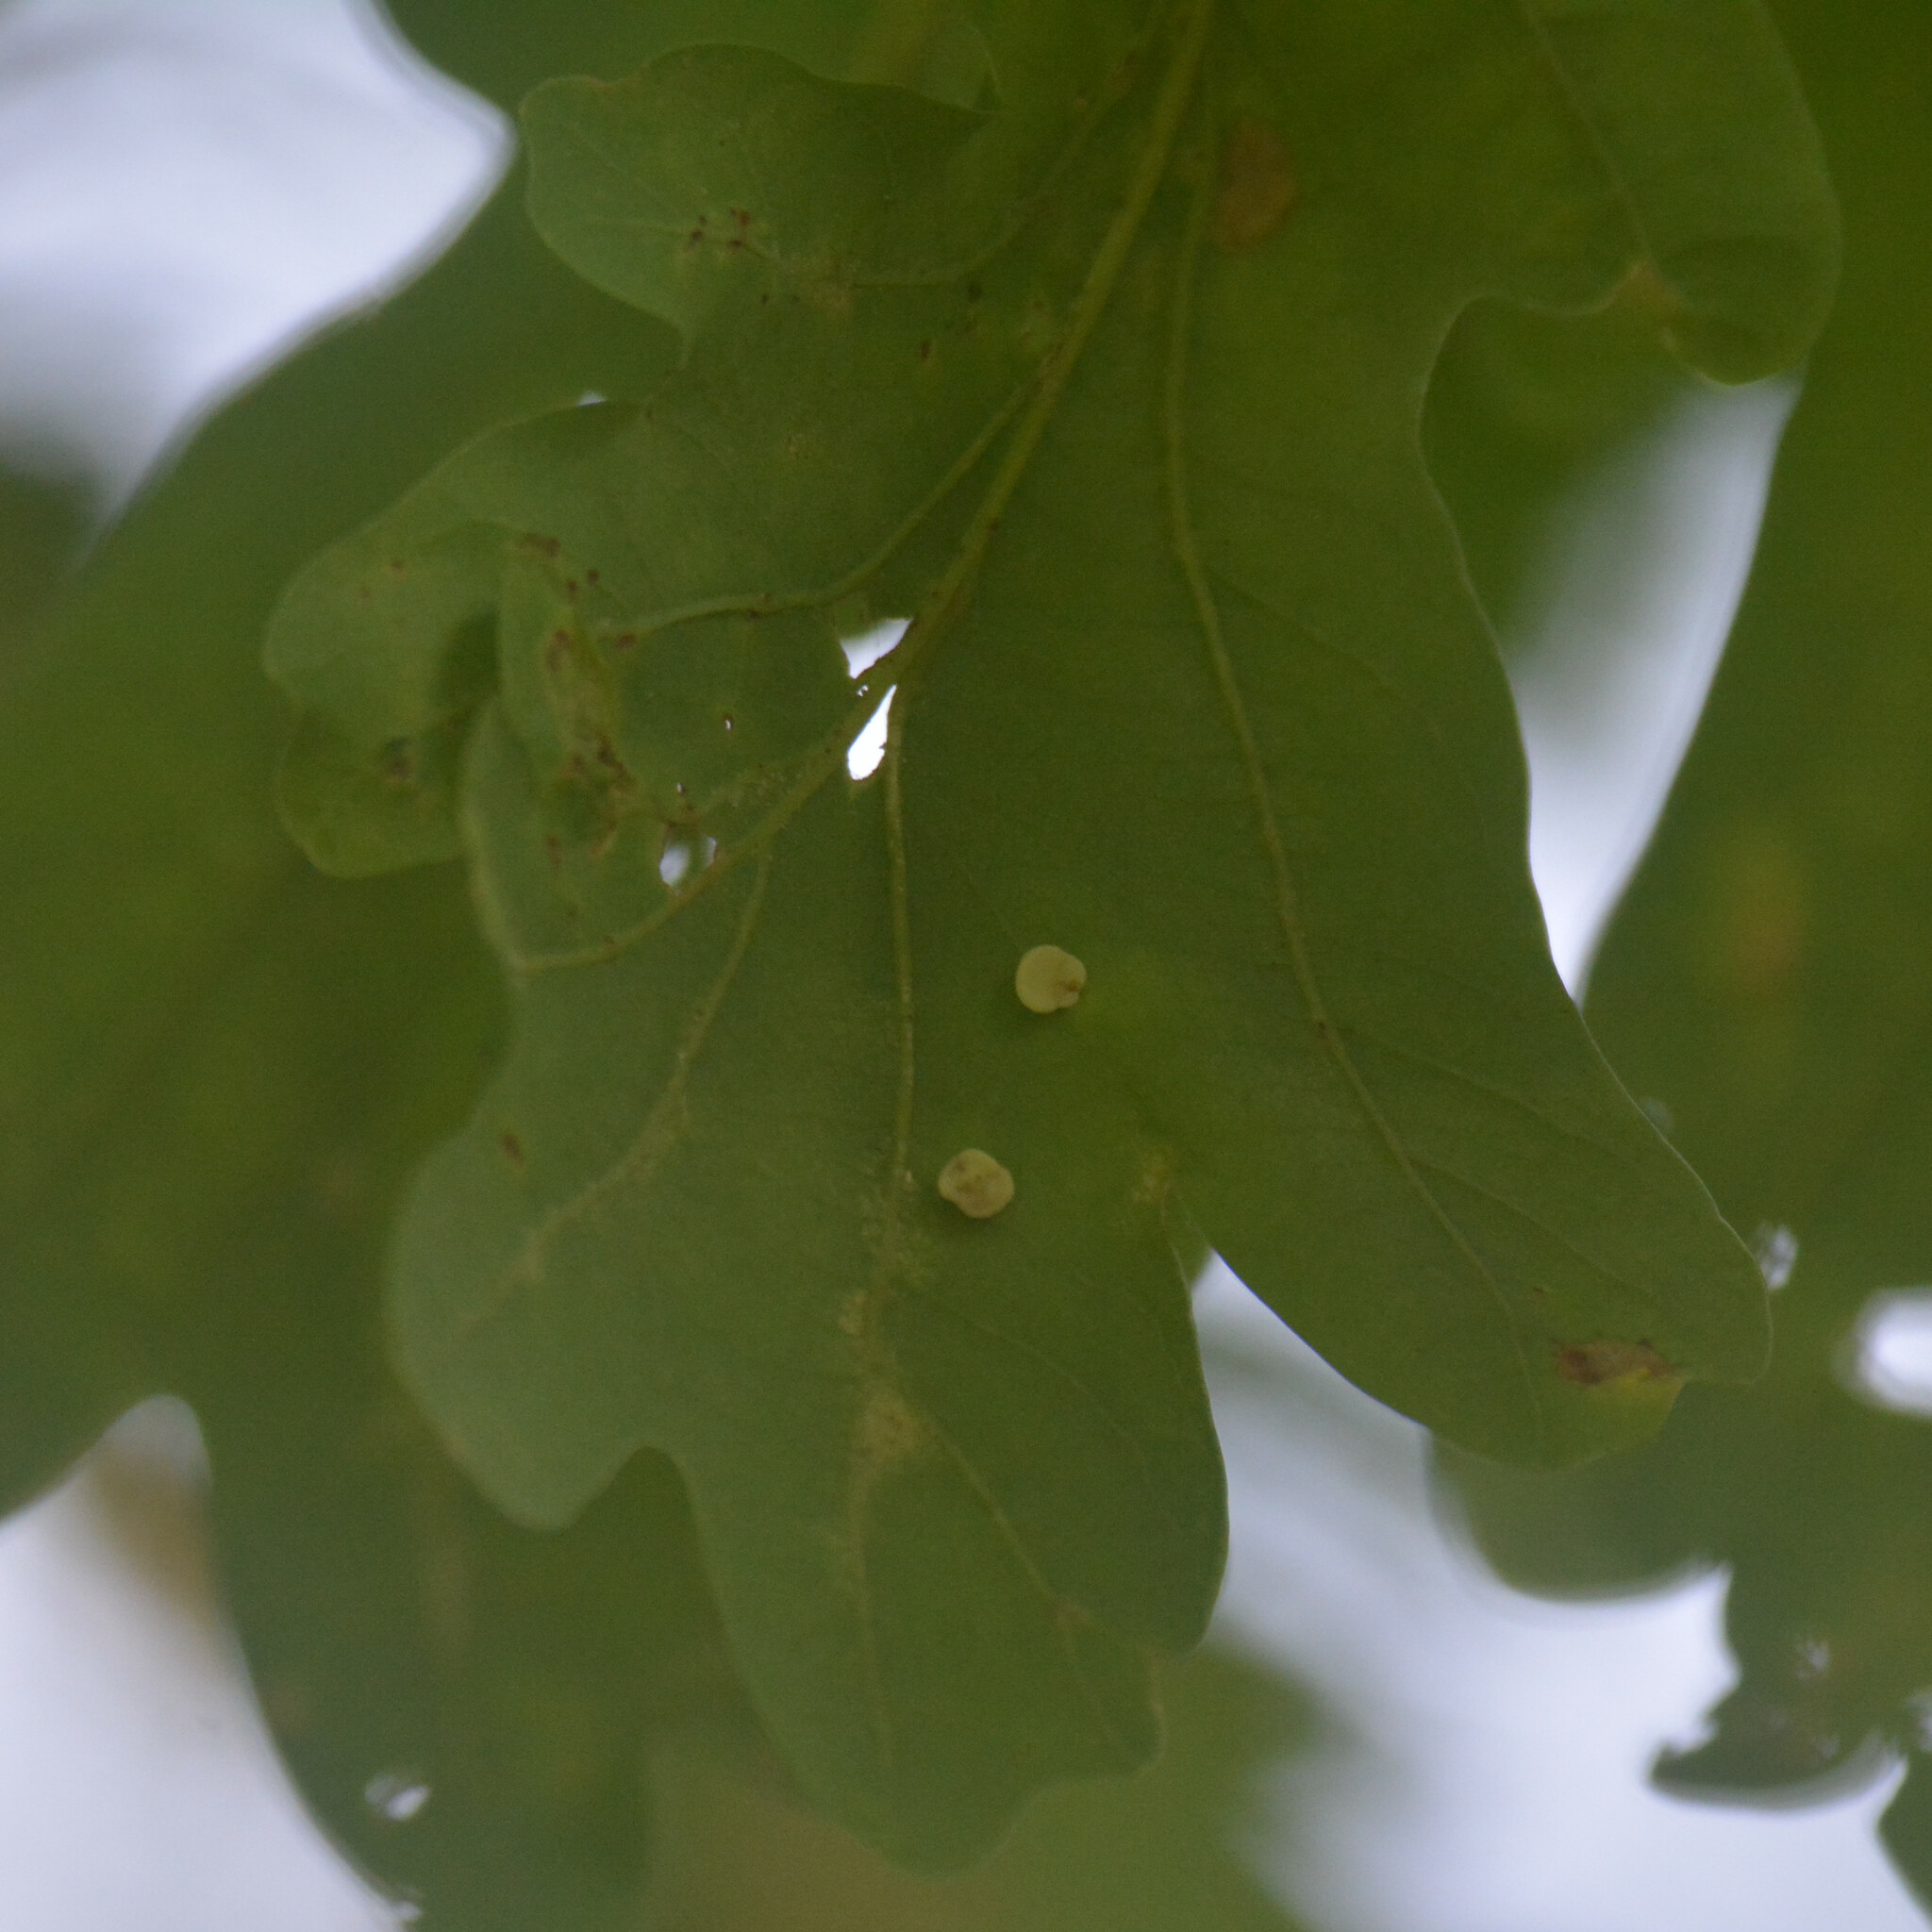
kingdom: Animalia
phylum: Arthropoda
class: Insecta
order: Hymenoptera
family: Cynipidae
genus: Neuroterus
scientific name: Neuroterus albipes
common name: Smooth spangle gall
